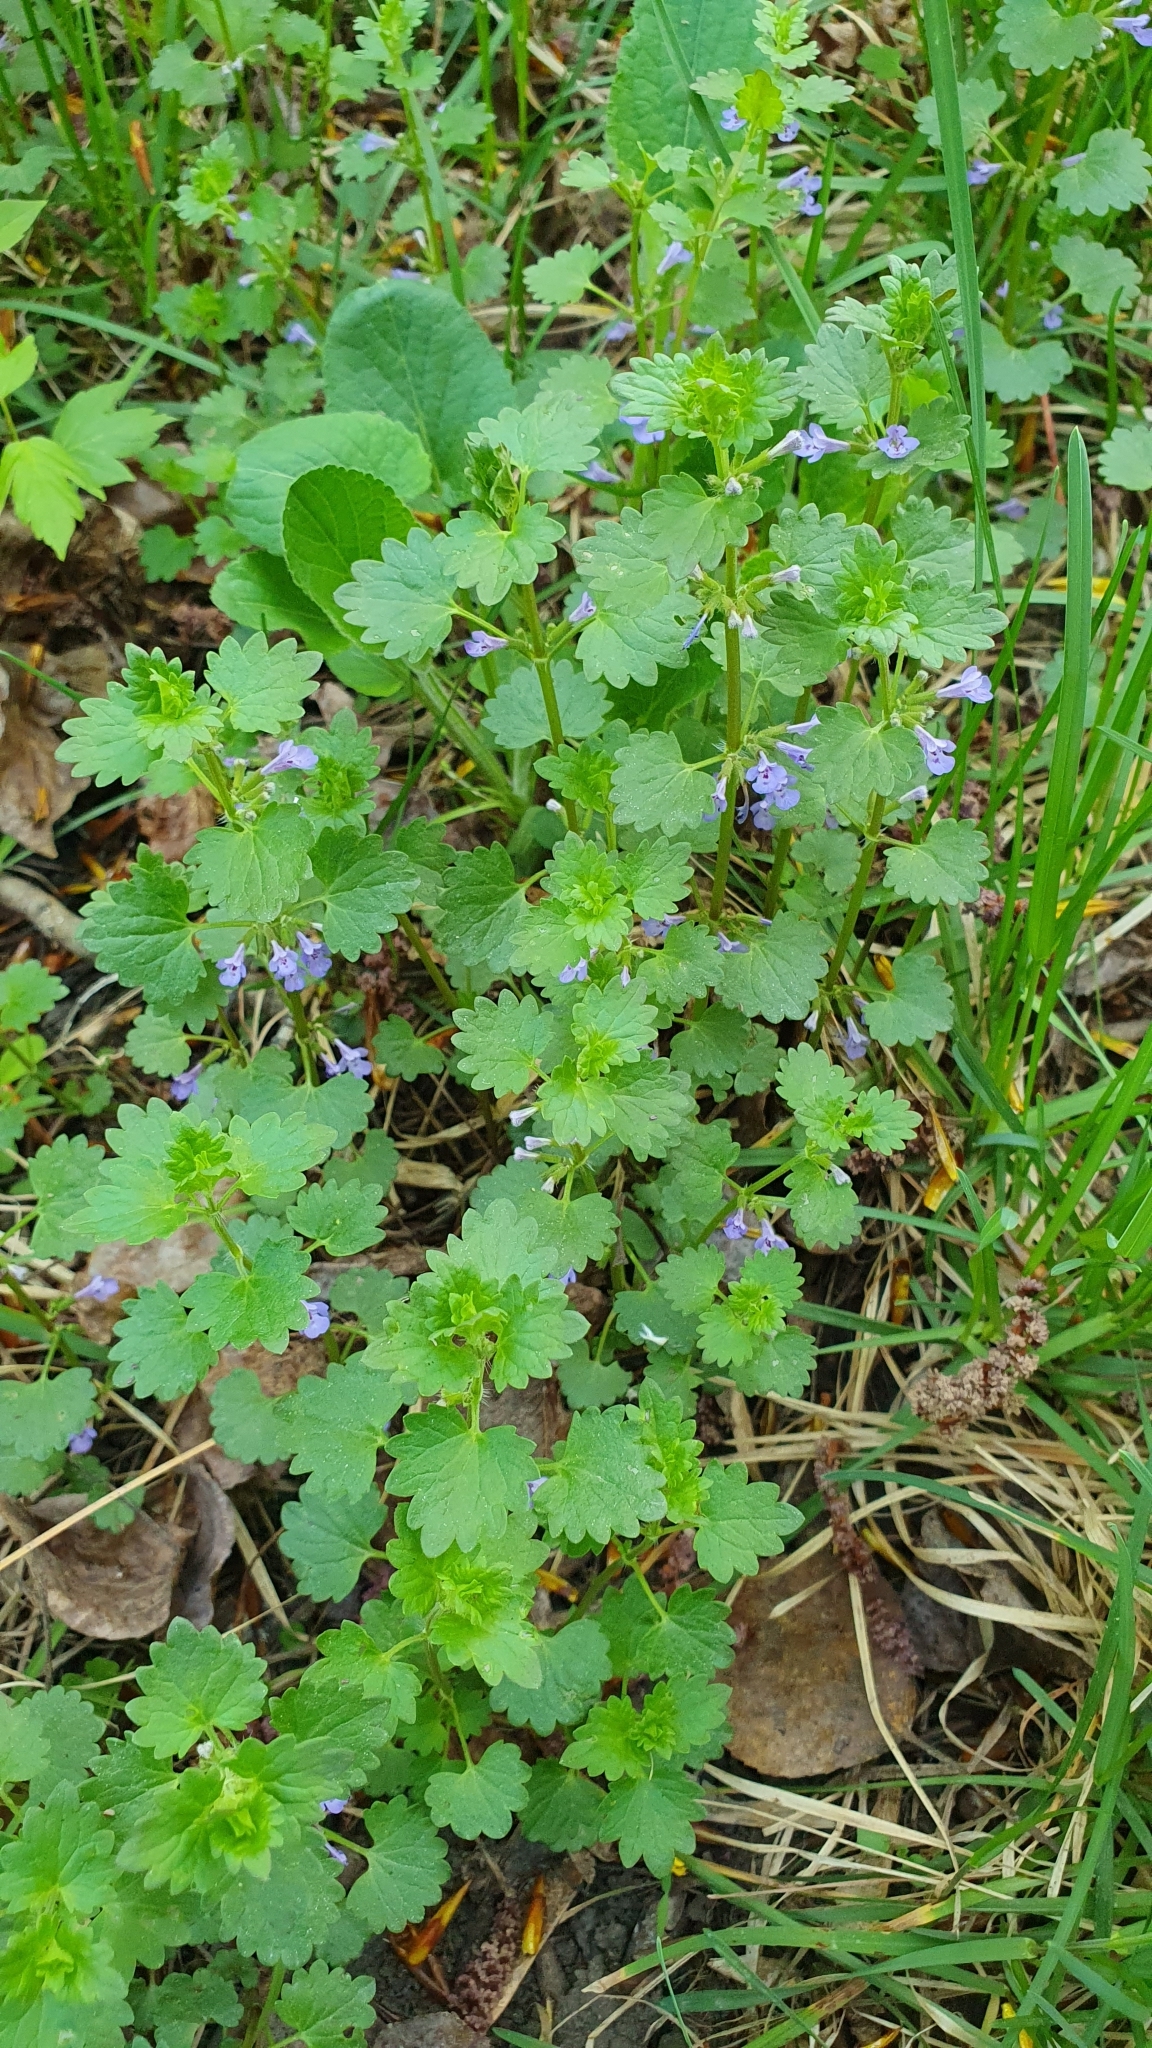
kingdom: Plantae
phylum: Tracheophyta
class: Magnoliopsida
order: Lamiales
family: Lamiaceae
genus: Glechoma
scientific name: Glechoma hederacea
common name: Ground ivy
